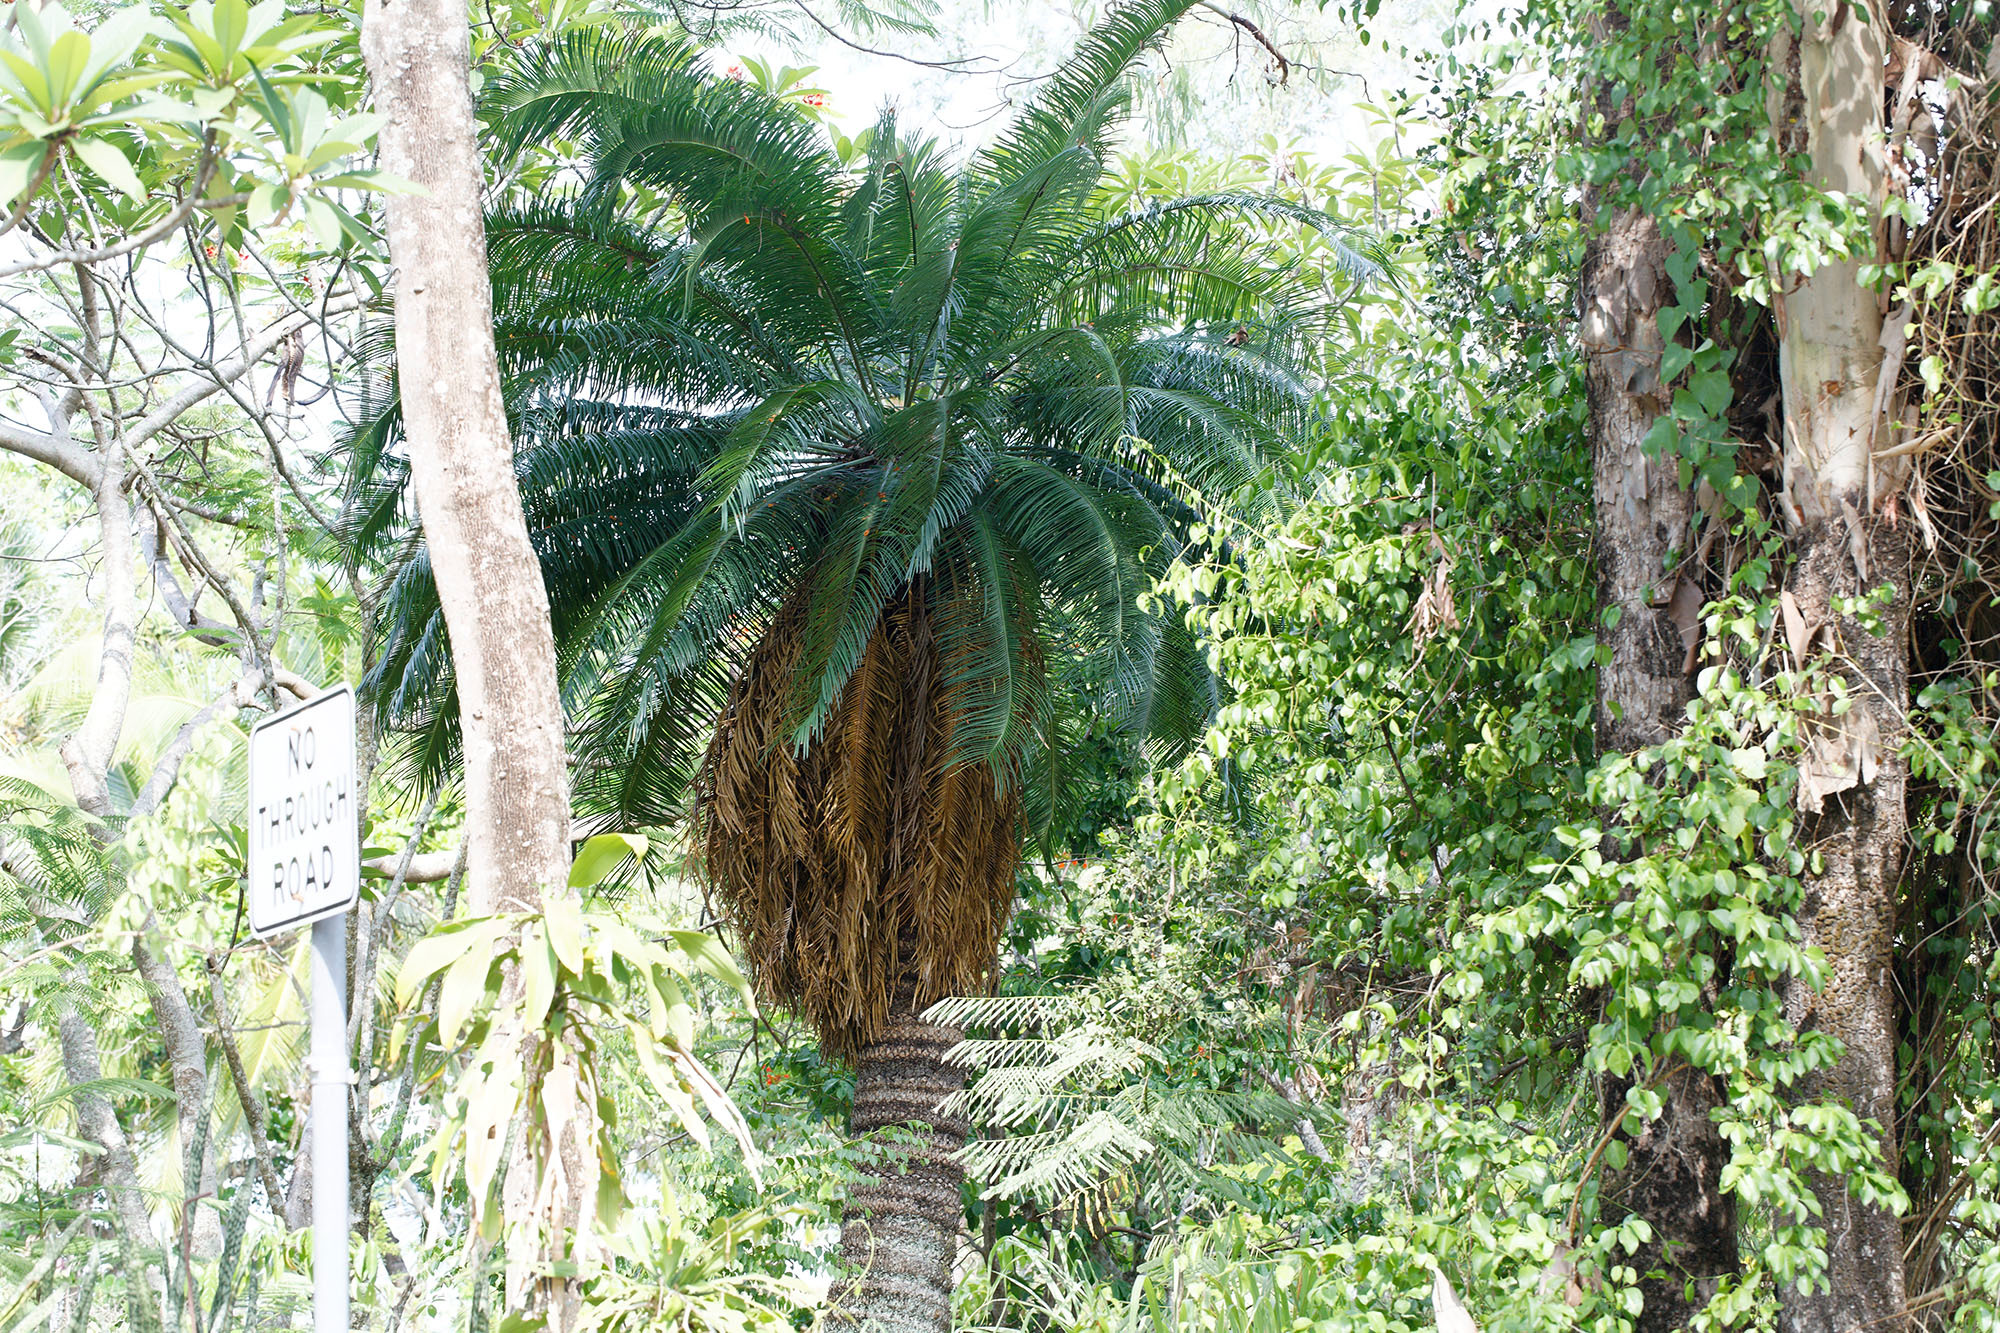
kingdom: Plantae
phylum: Tracheophyta
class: Cycadopsida
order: Cycadales
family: Cycadaceae
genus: Cycas
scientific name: Cycas media
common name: Queensland cycas
